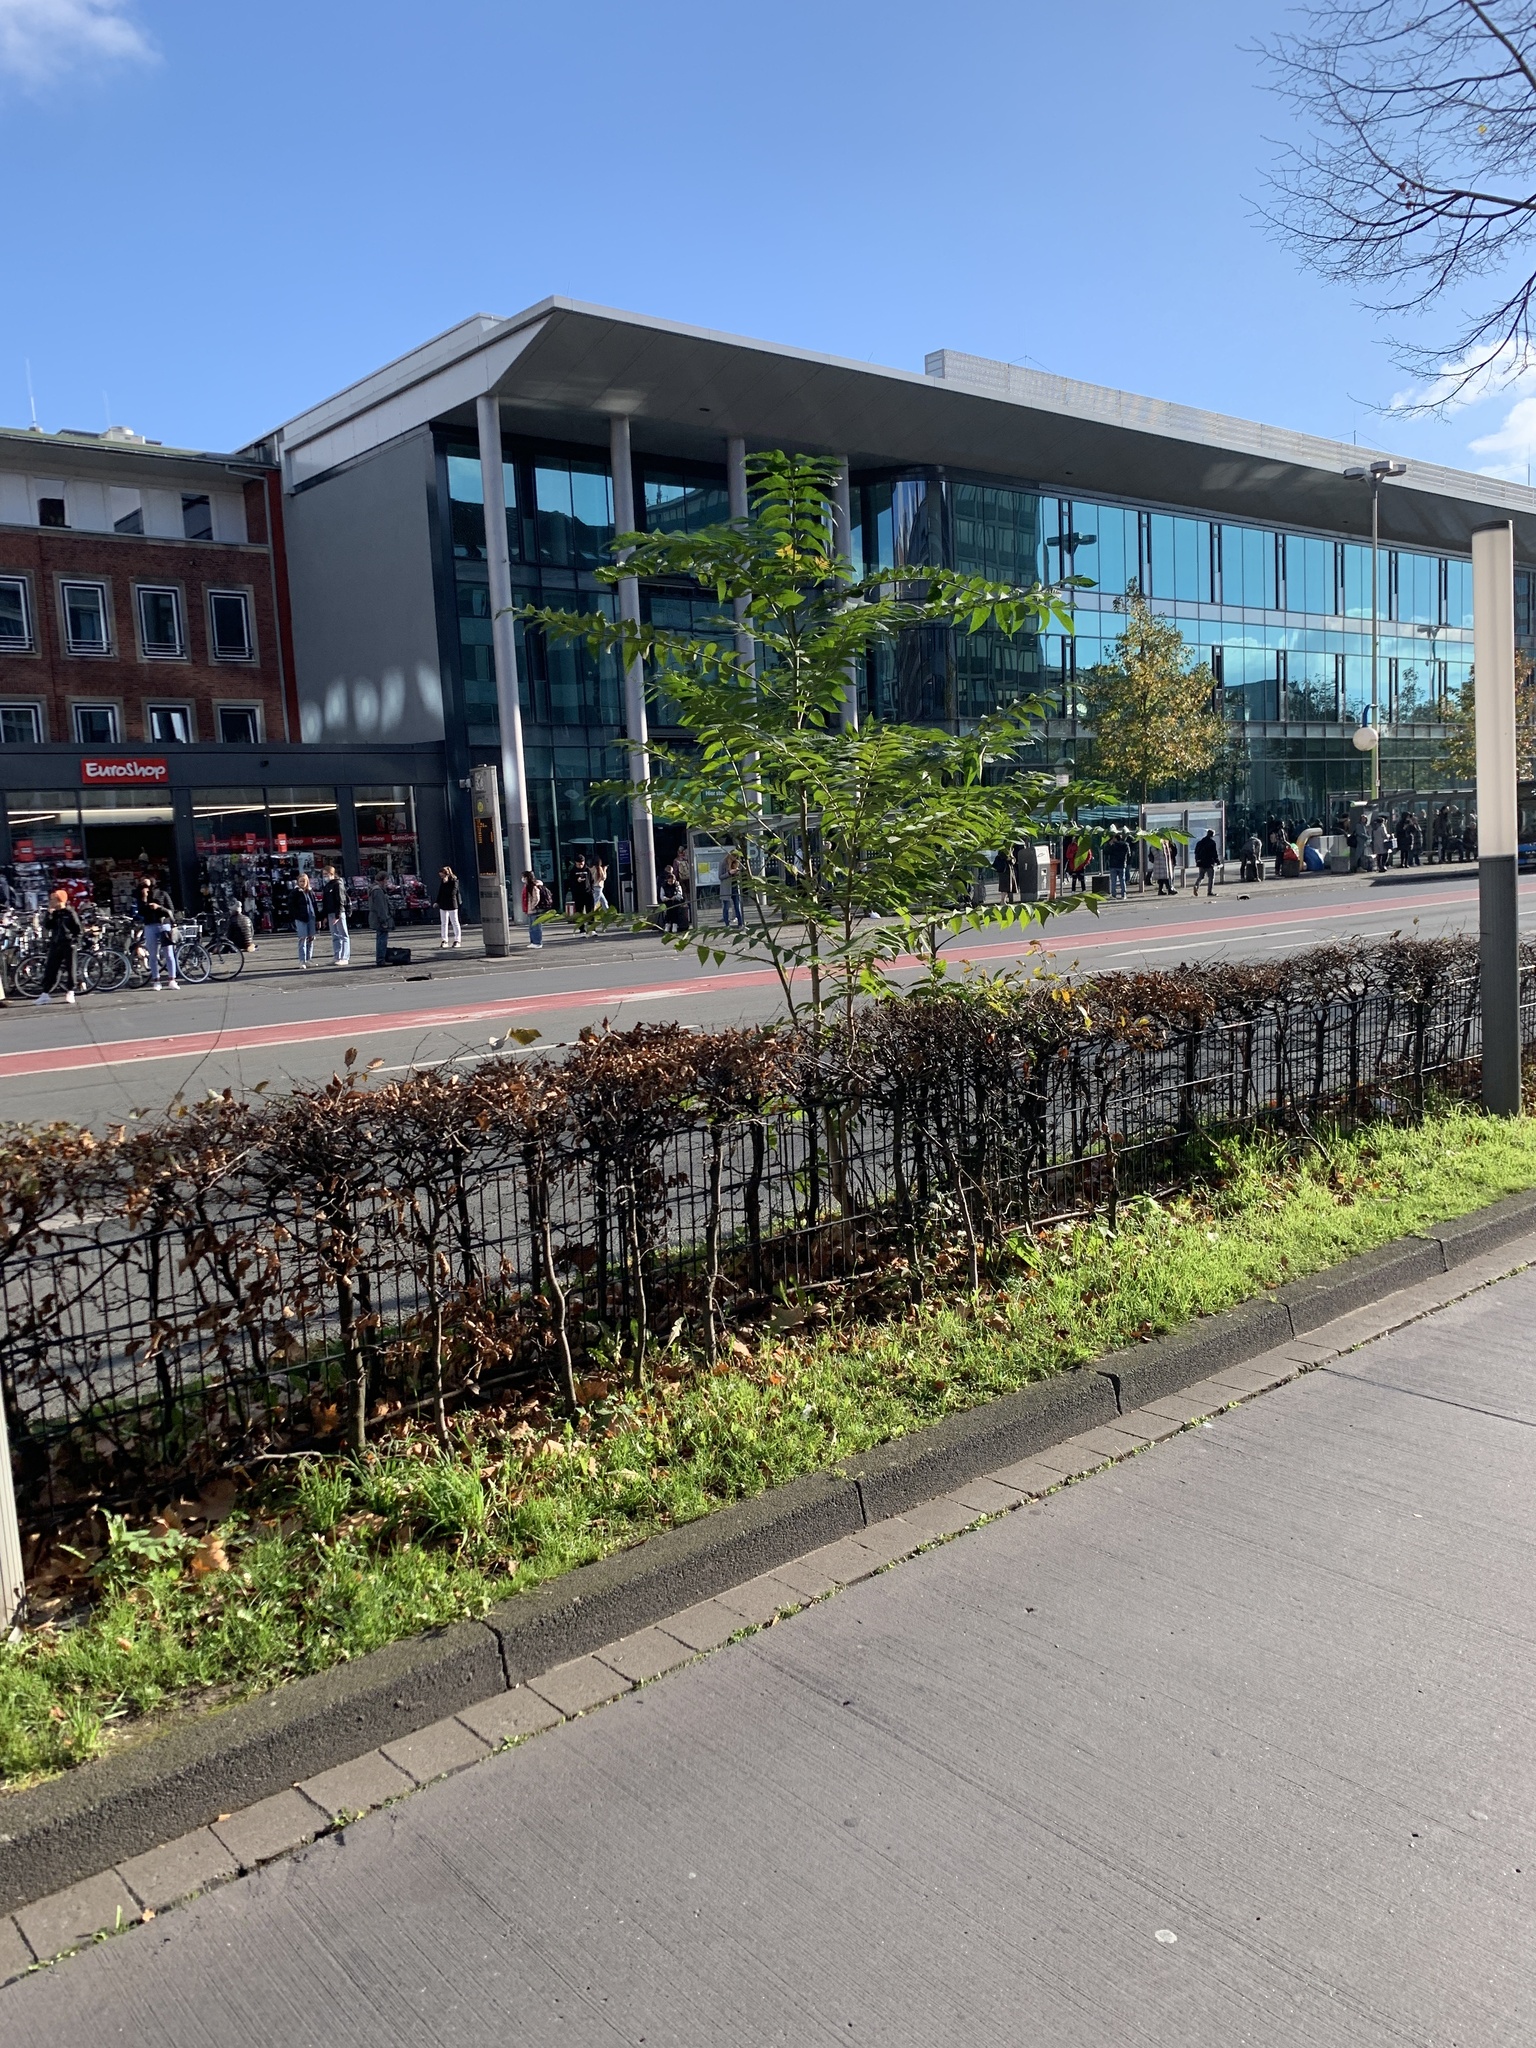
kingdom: Plantae
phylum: Tracheophyta
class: Magnoliopsida
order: Sapindales
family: Simaroubaceae
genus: Ailanthus
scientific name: Ailanthus altissima
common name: Tree-of-heaven
